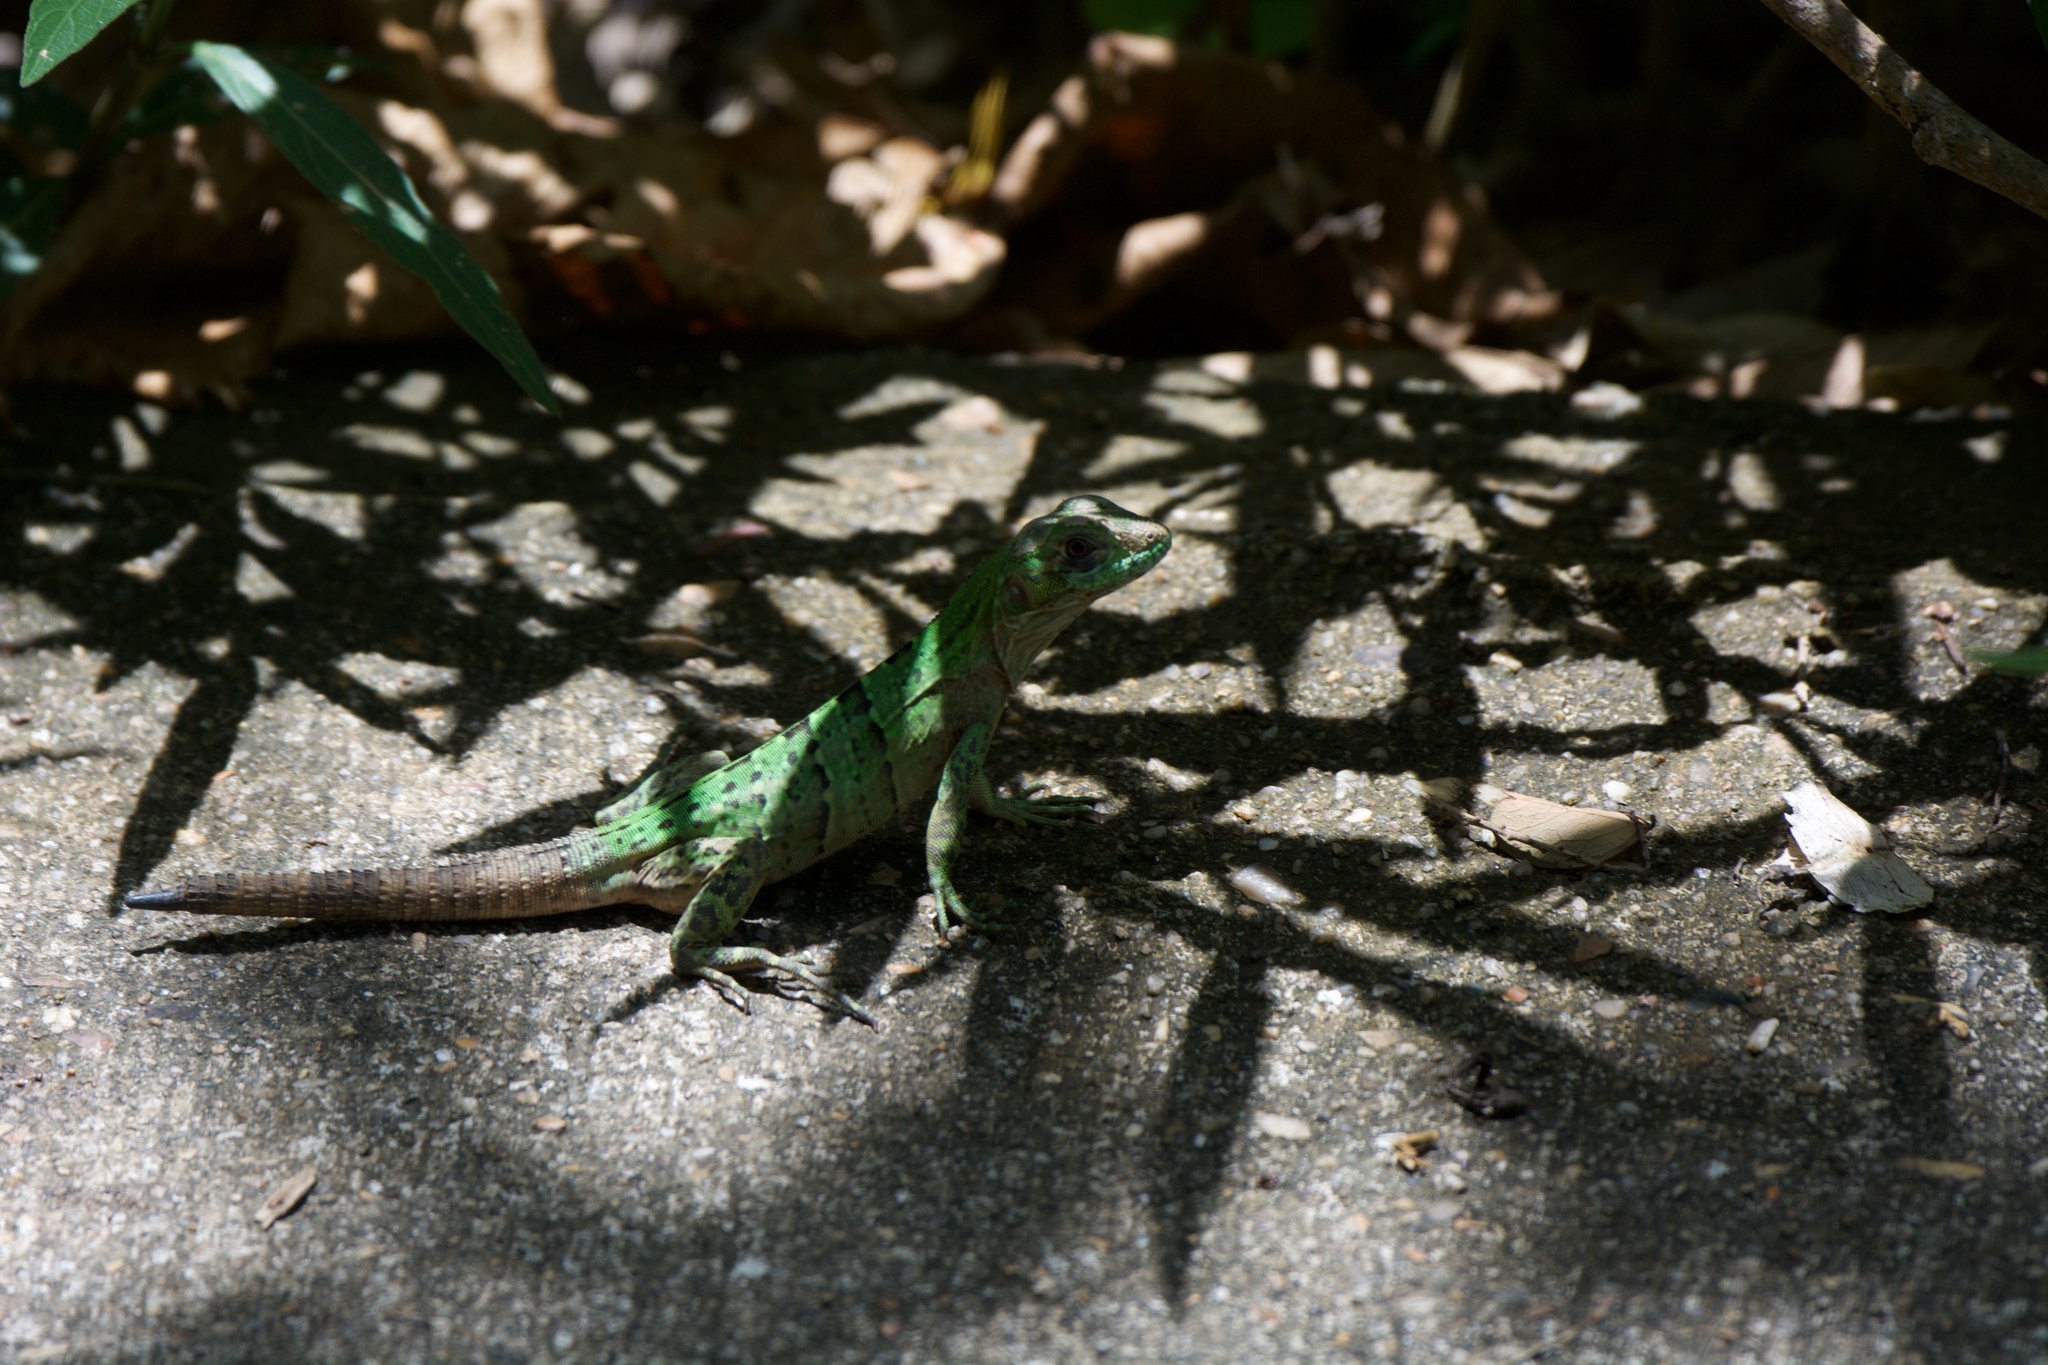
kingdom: Animalia
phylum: Chordata
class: Squamata
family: Iguanidae
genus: Ctenosaura
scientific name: Ctenosaura similis
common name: Black spiny-tailed iguana
